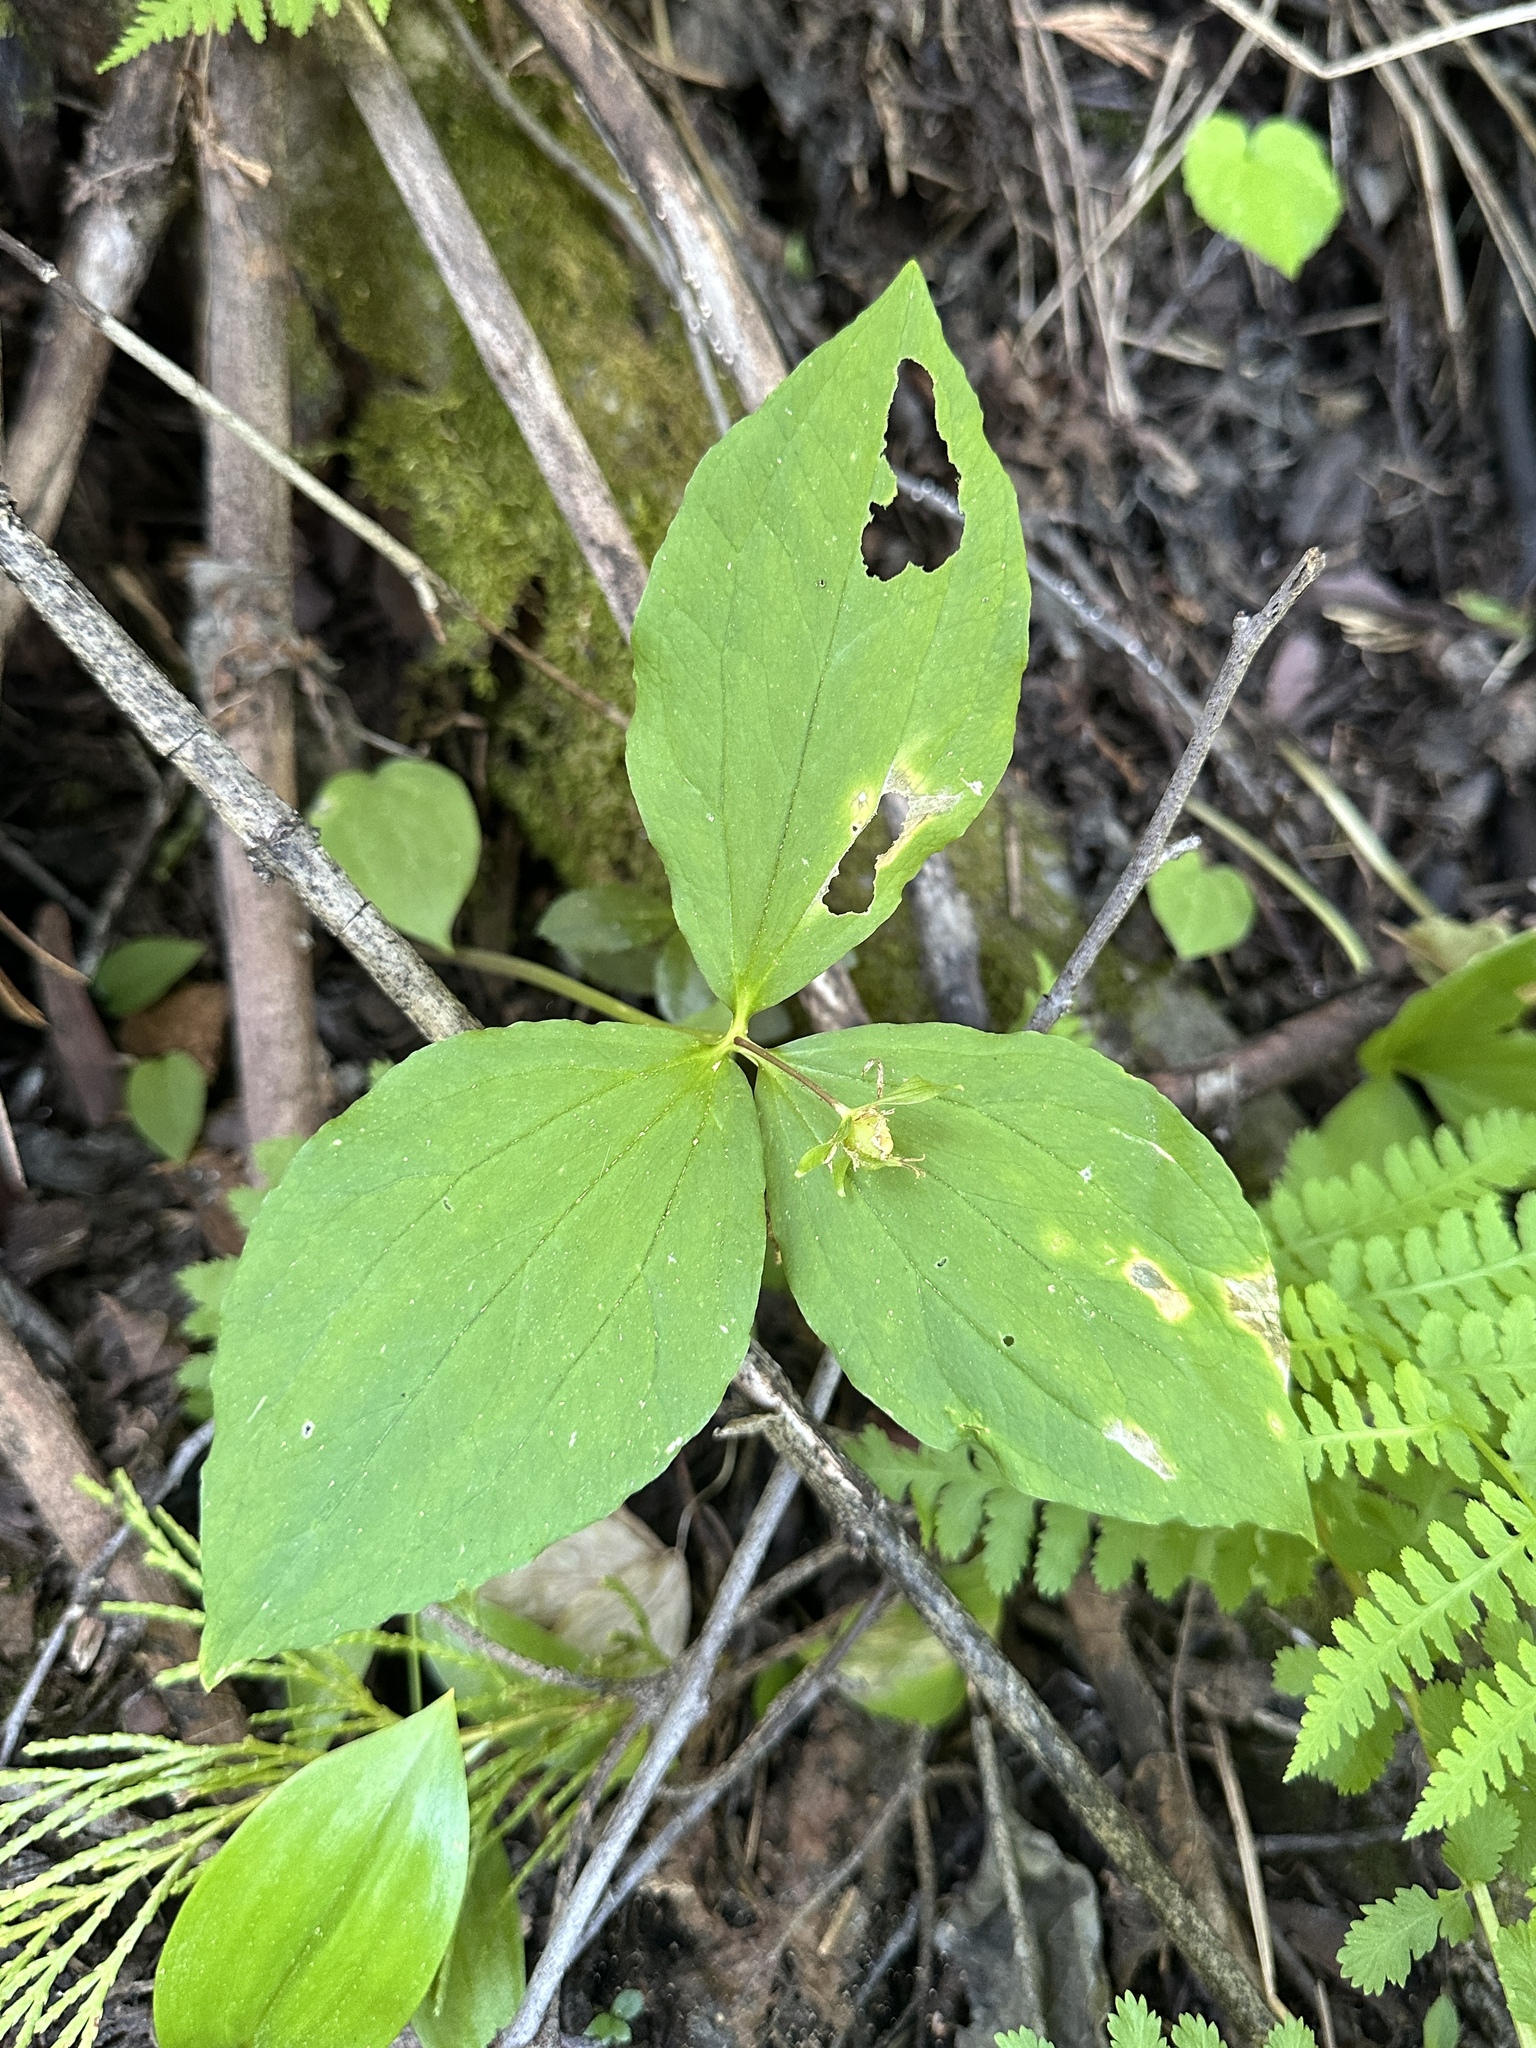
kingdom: Plantae
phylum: Tracheophyta
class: Liliopsida
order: Liliales
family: Melanthiaceae
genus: Trillium
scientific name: Trillium ovatum
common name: Pacific trillium
